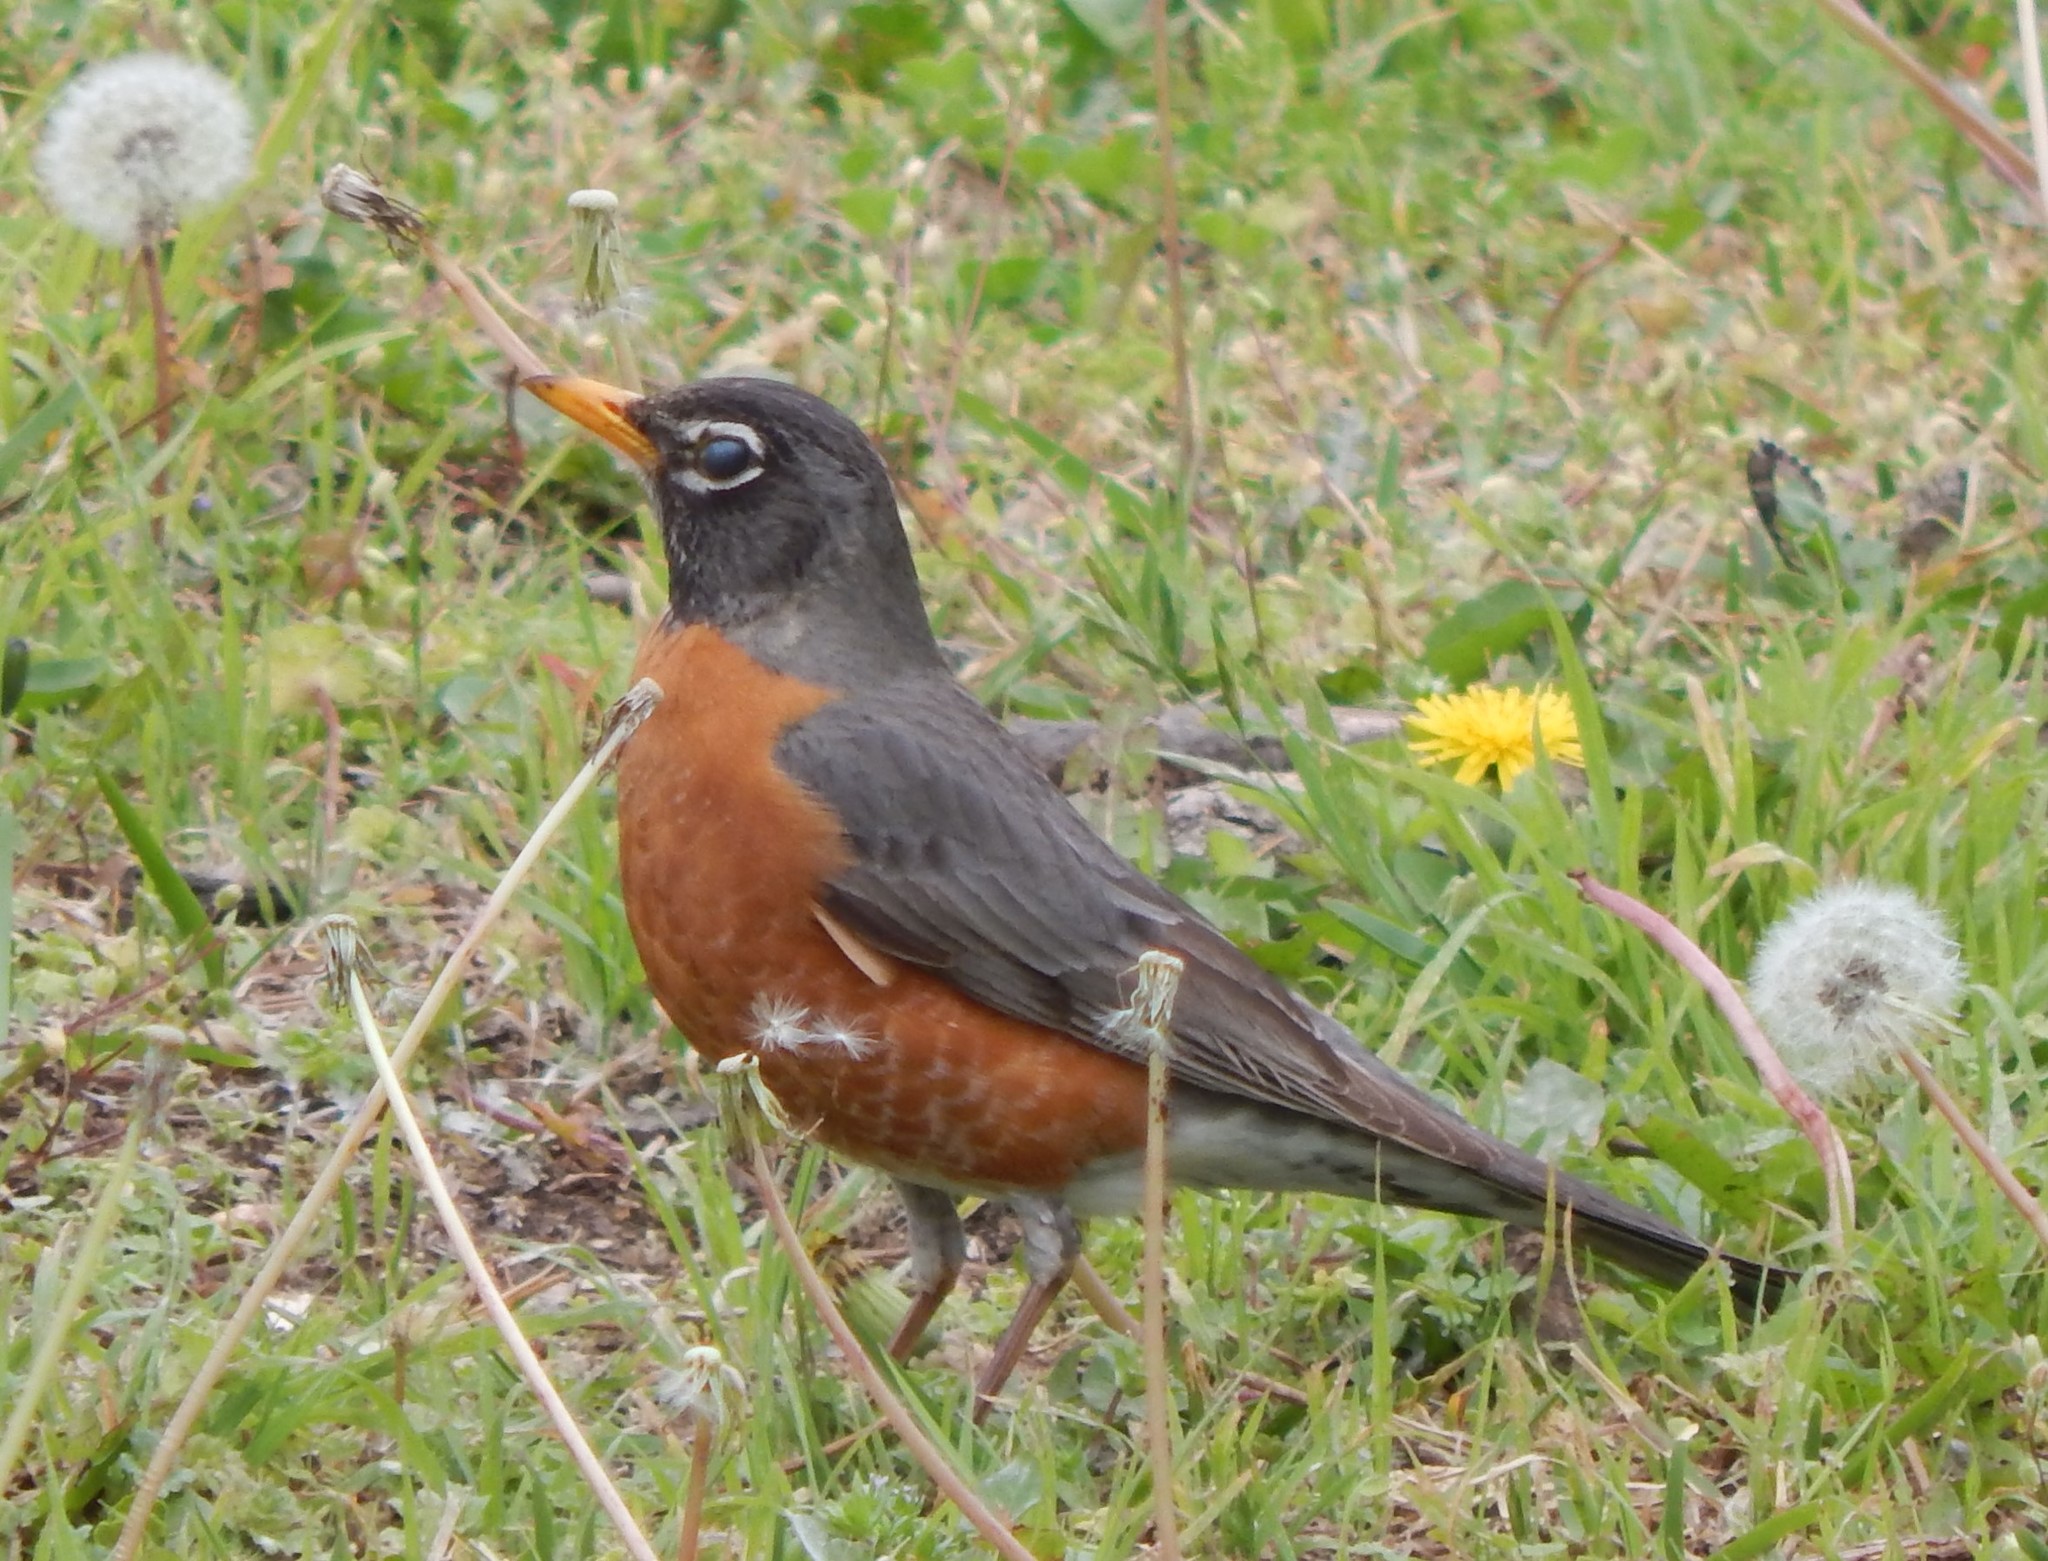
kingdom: Animalia
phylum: Chordata
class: Aves
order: Passeriformes
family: Turdidae
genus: Turdus
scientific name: Turdus migratorius
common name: American robin
